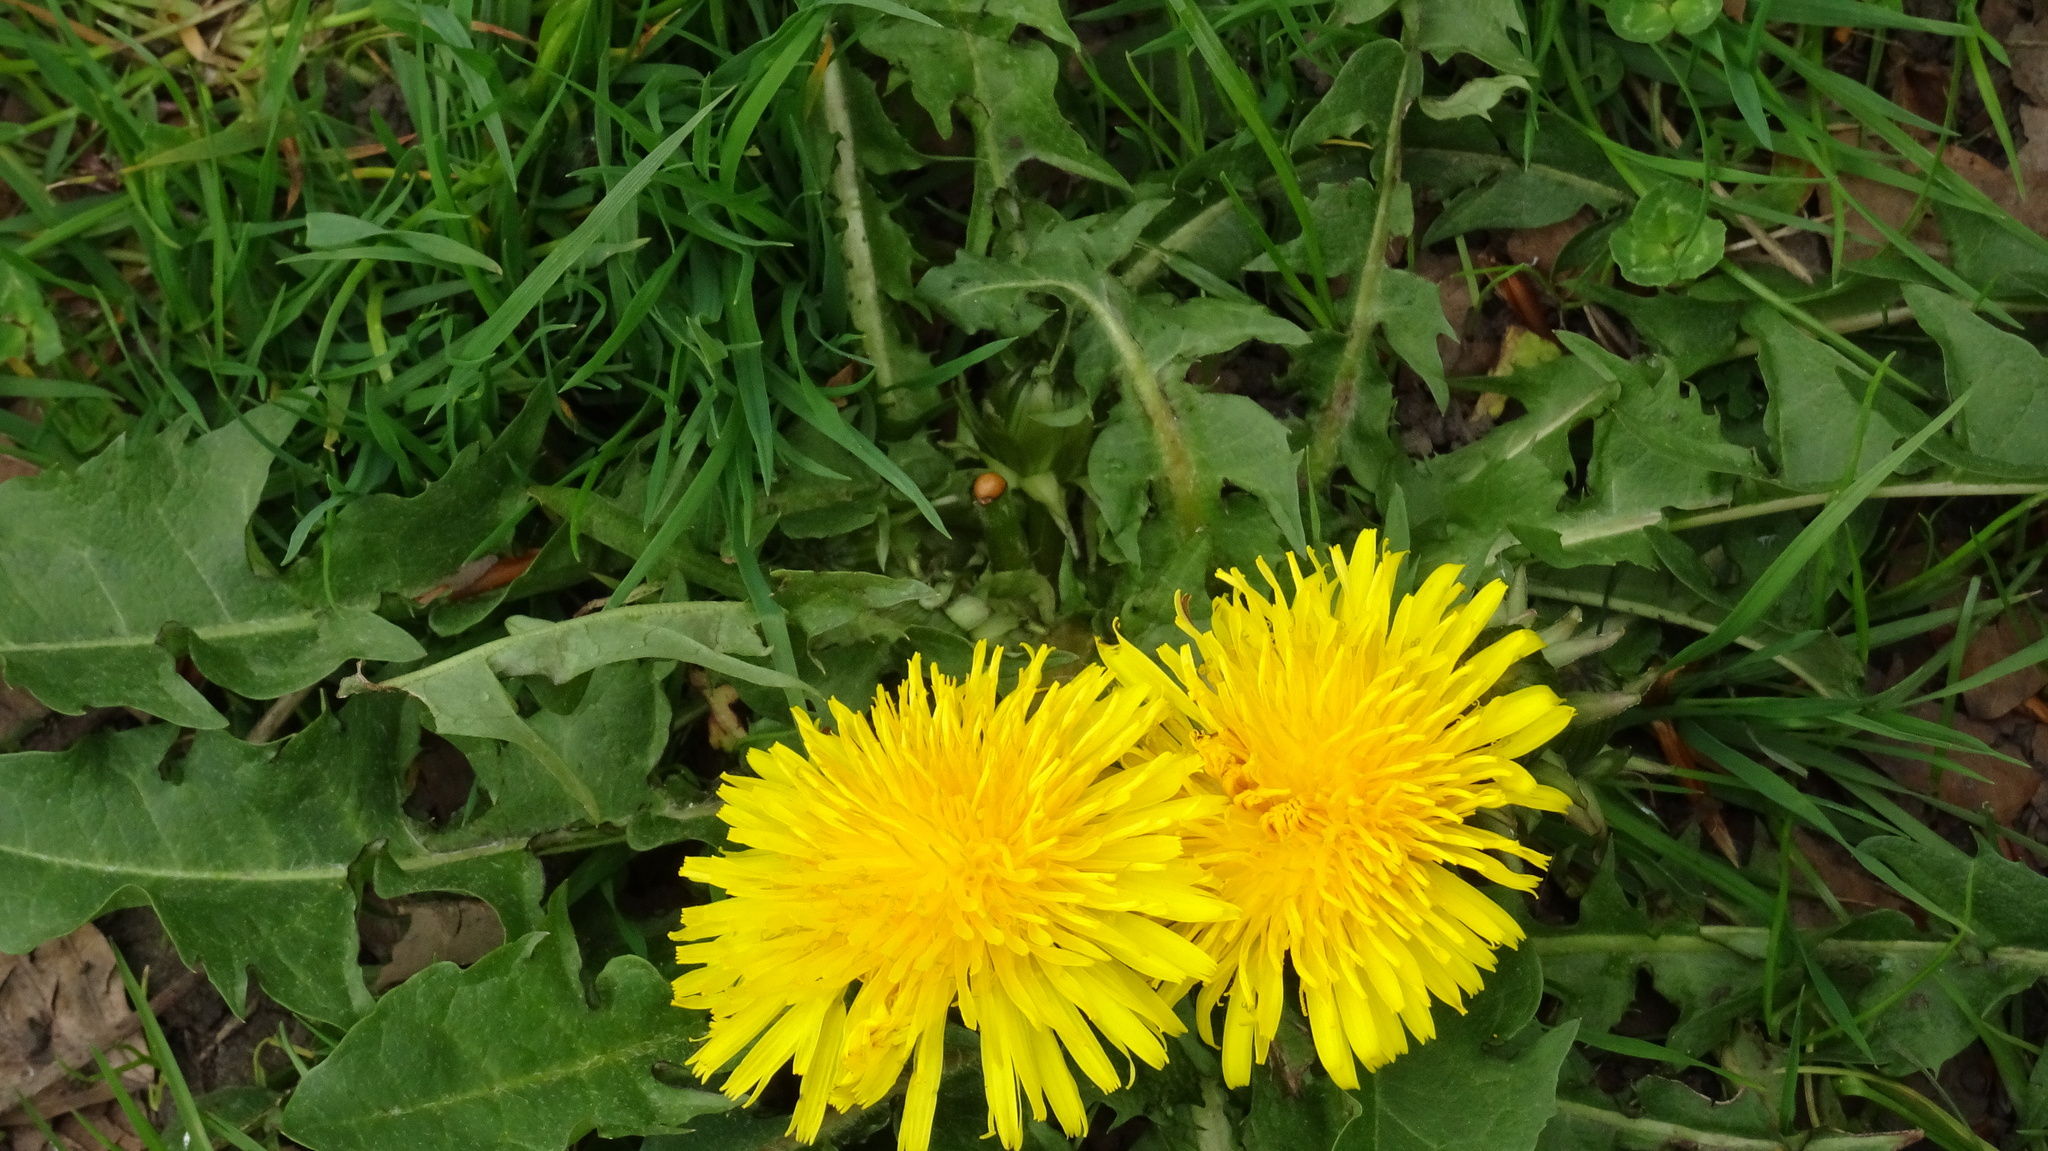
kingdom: Plantae
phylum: Tracheophyta
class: Magnoliopsida
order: Asterales
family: Asteraceae
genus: Taraxacum
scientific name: Taraxacum officinale
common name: Common dandelion
